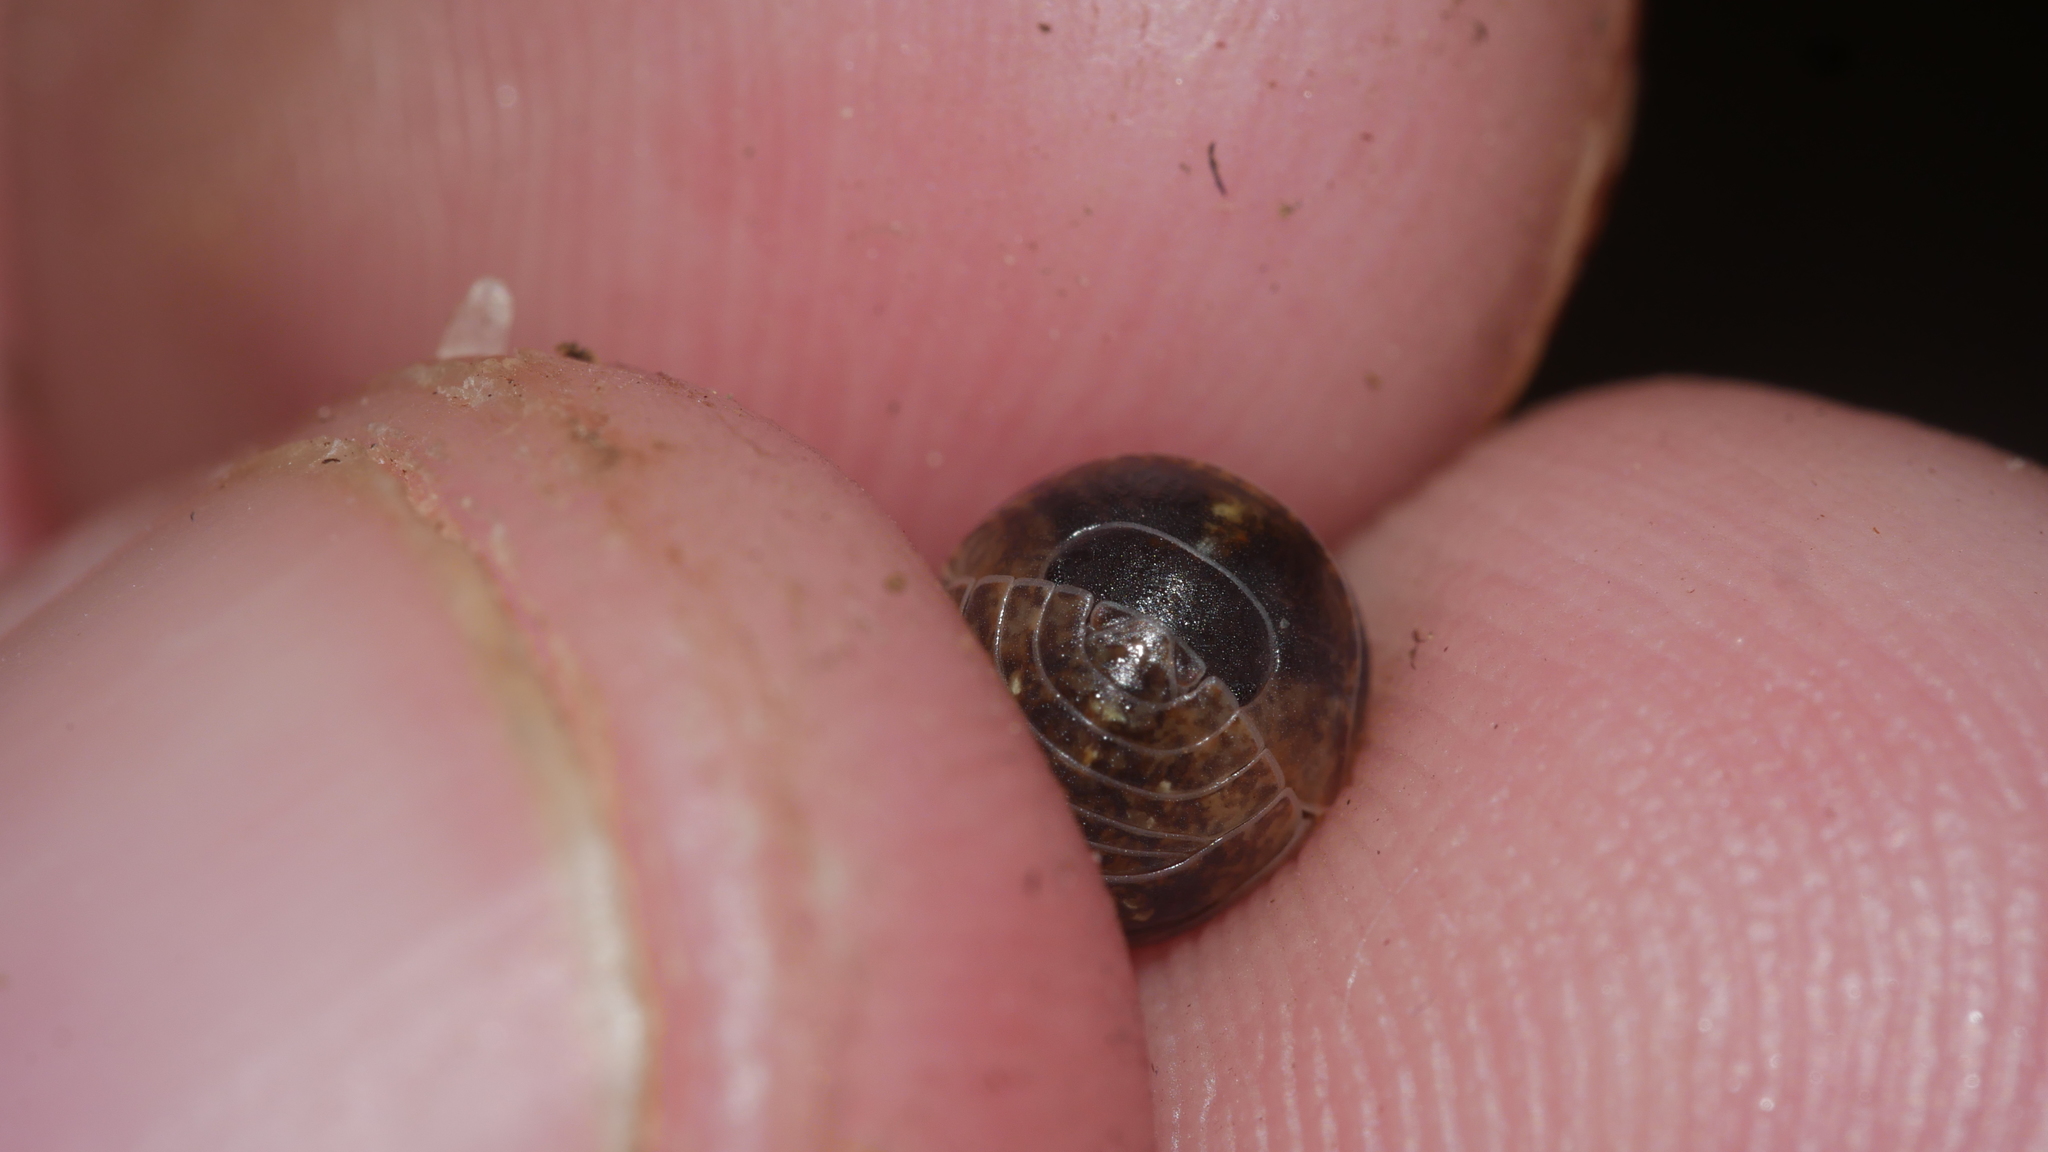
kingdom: Animalia
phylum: Arthropoda
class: Malacostraca
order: Isopoda
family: Armadillidiidae
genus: Armadillidium
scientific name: Armadillidium vulgare
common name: Common pill woodlouse
